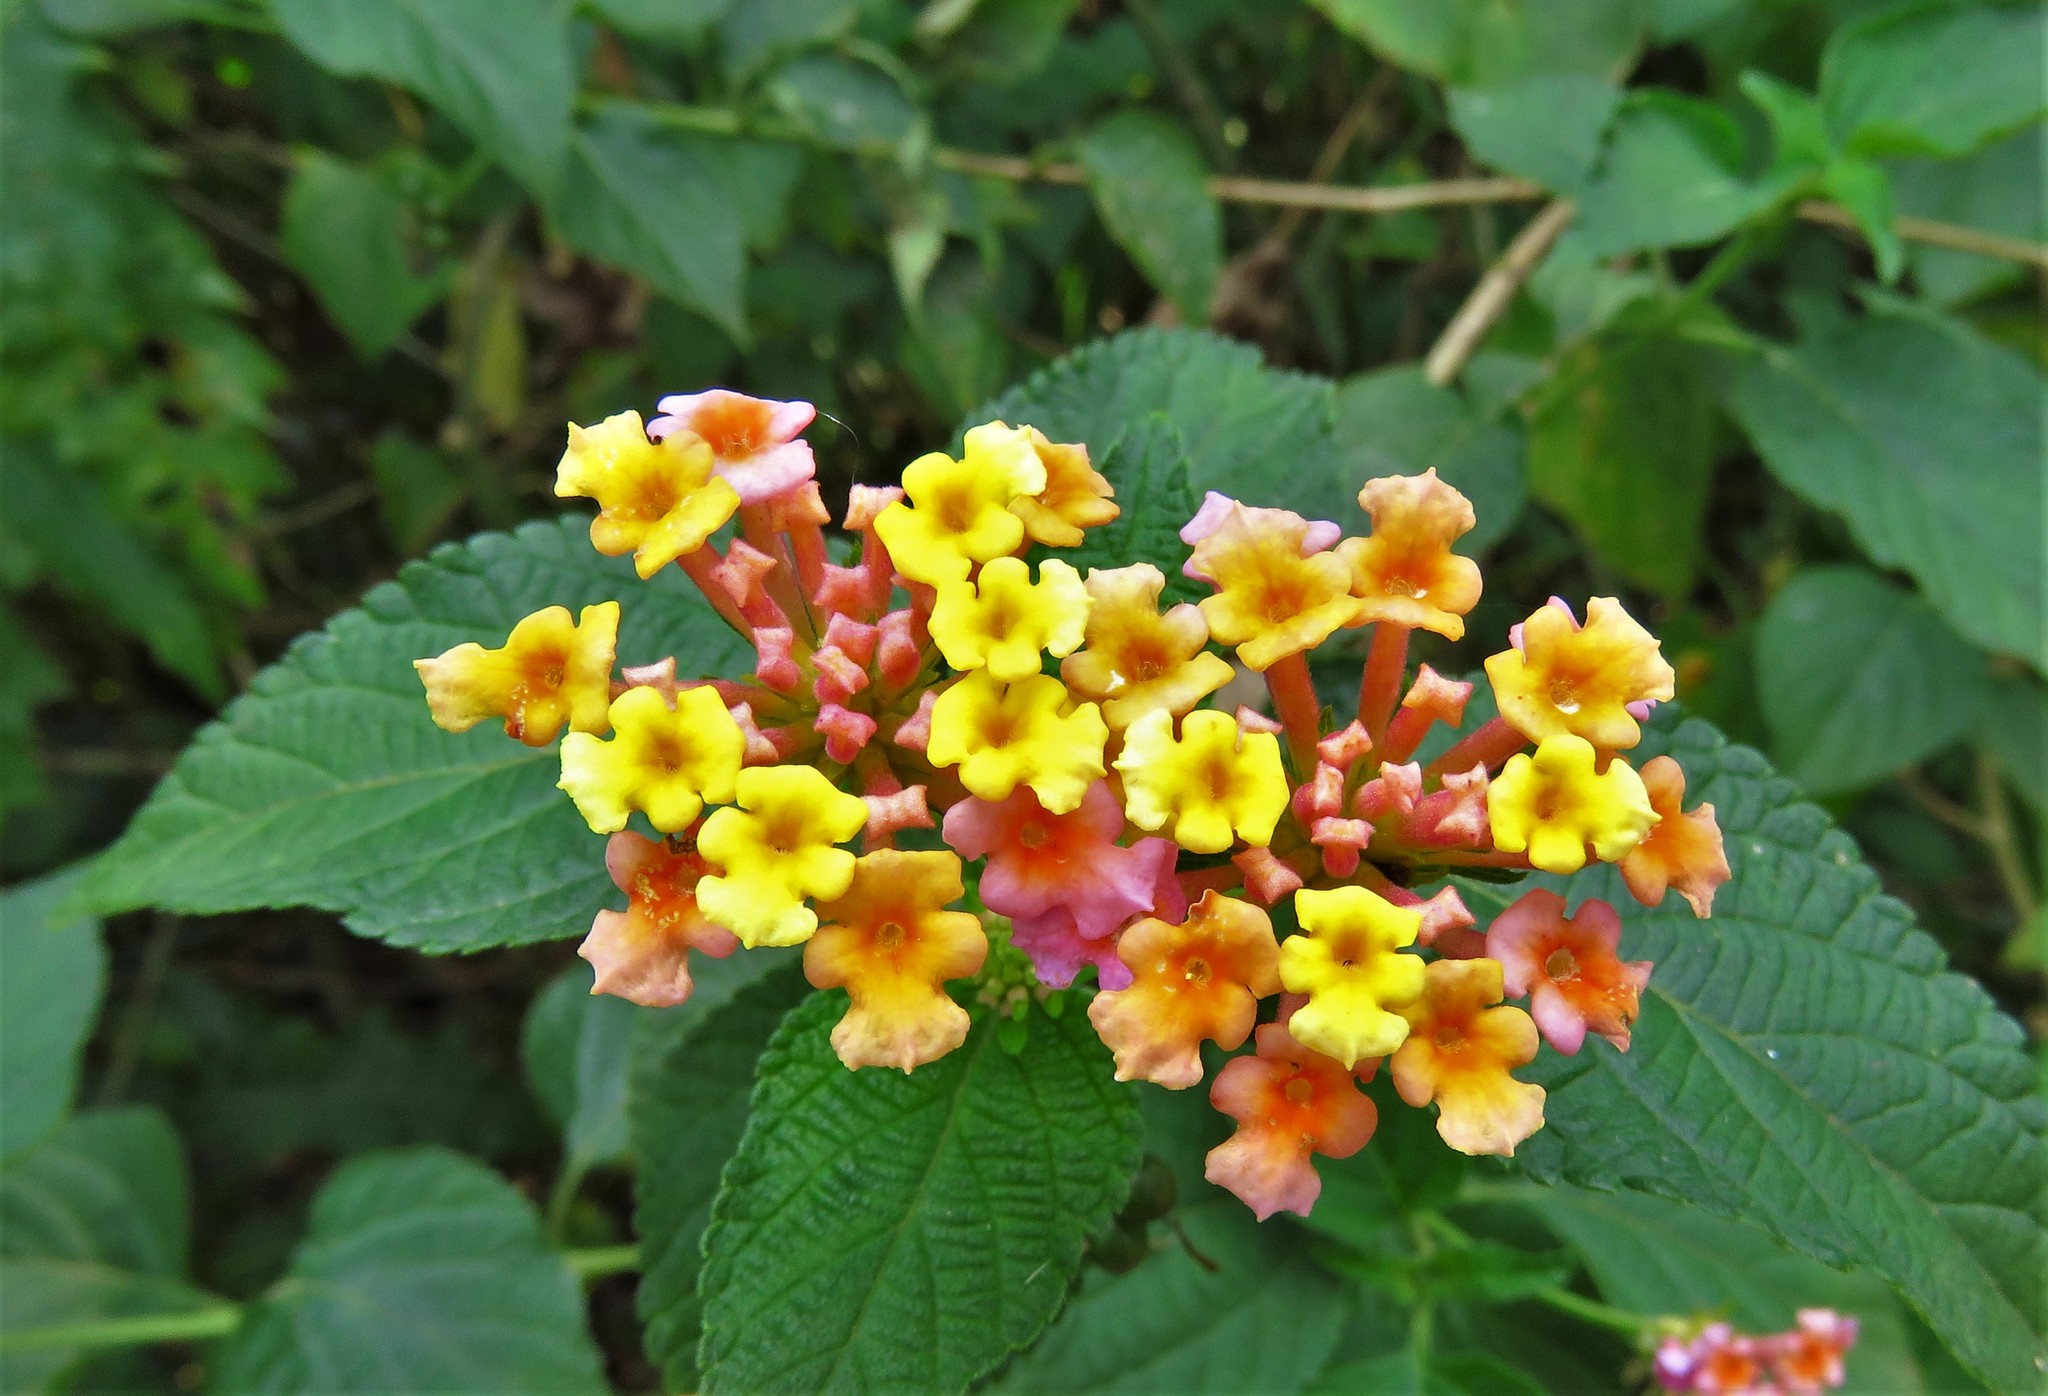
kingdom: Plantae
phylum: Tracheophyta
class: Magnoliopsida
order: Lamiales
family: Verbenaceae
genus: Lantana
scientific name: Lantana camara
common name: Lantana
